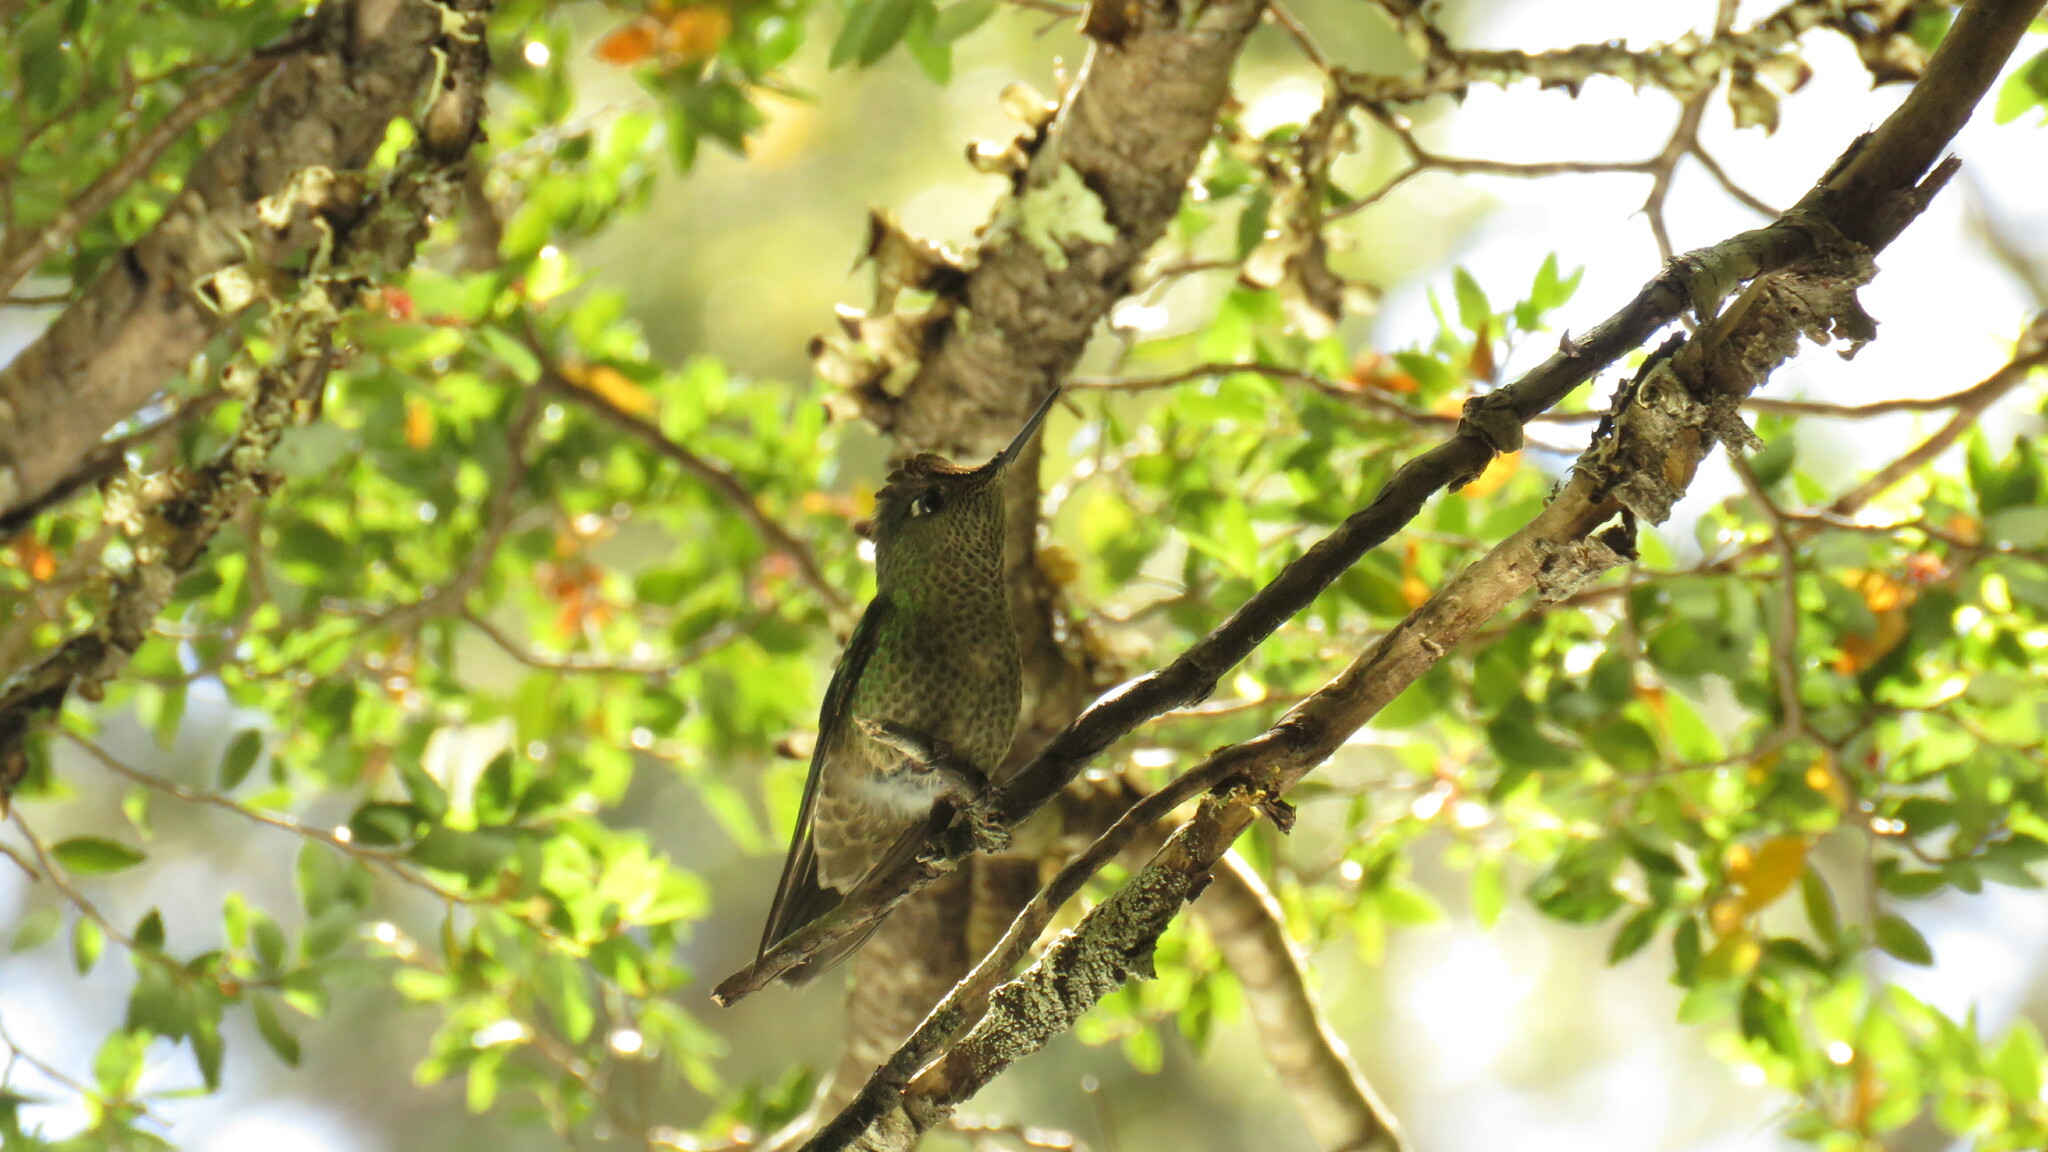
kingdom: Animalia
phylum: Chordata
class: Aves
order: Apodiformes
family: Trochilidae
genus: Sephanoides
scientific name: Sephanoides sephaniodes
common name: Green-backed firecrown
